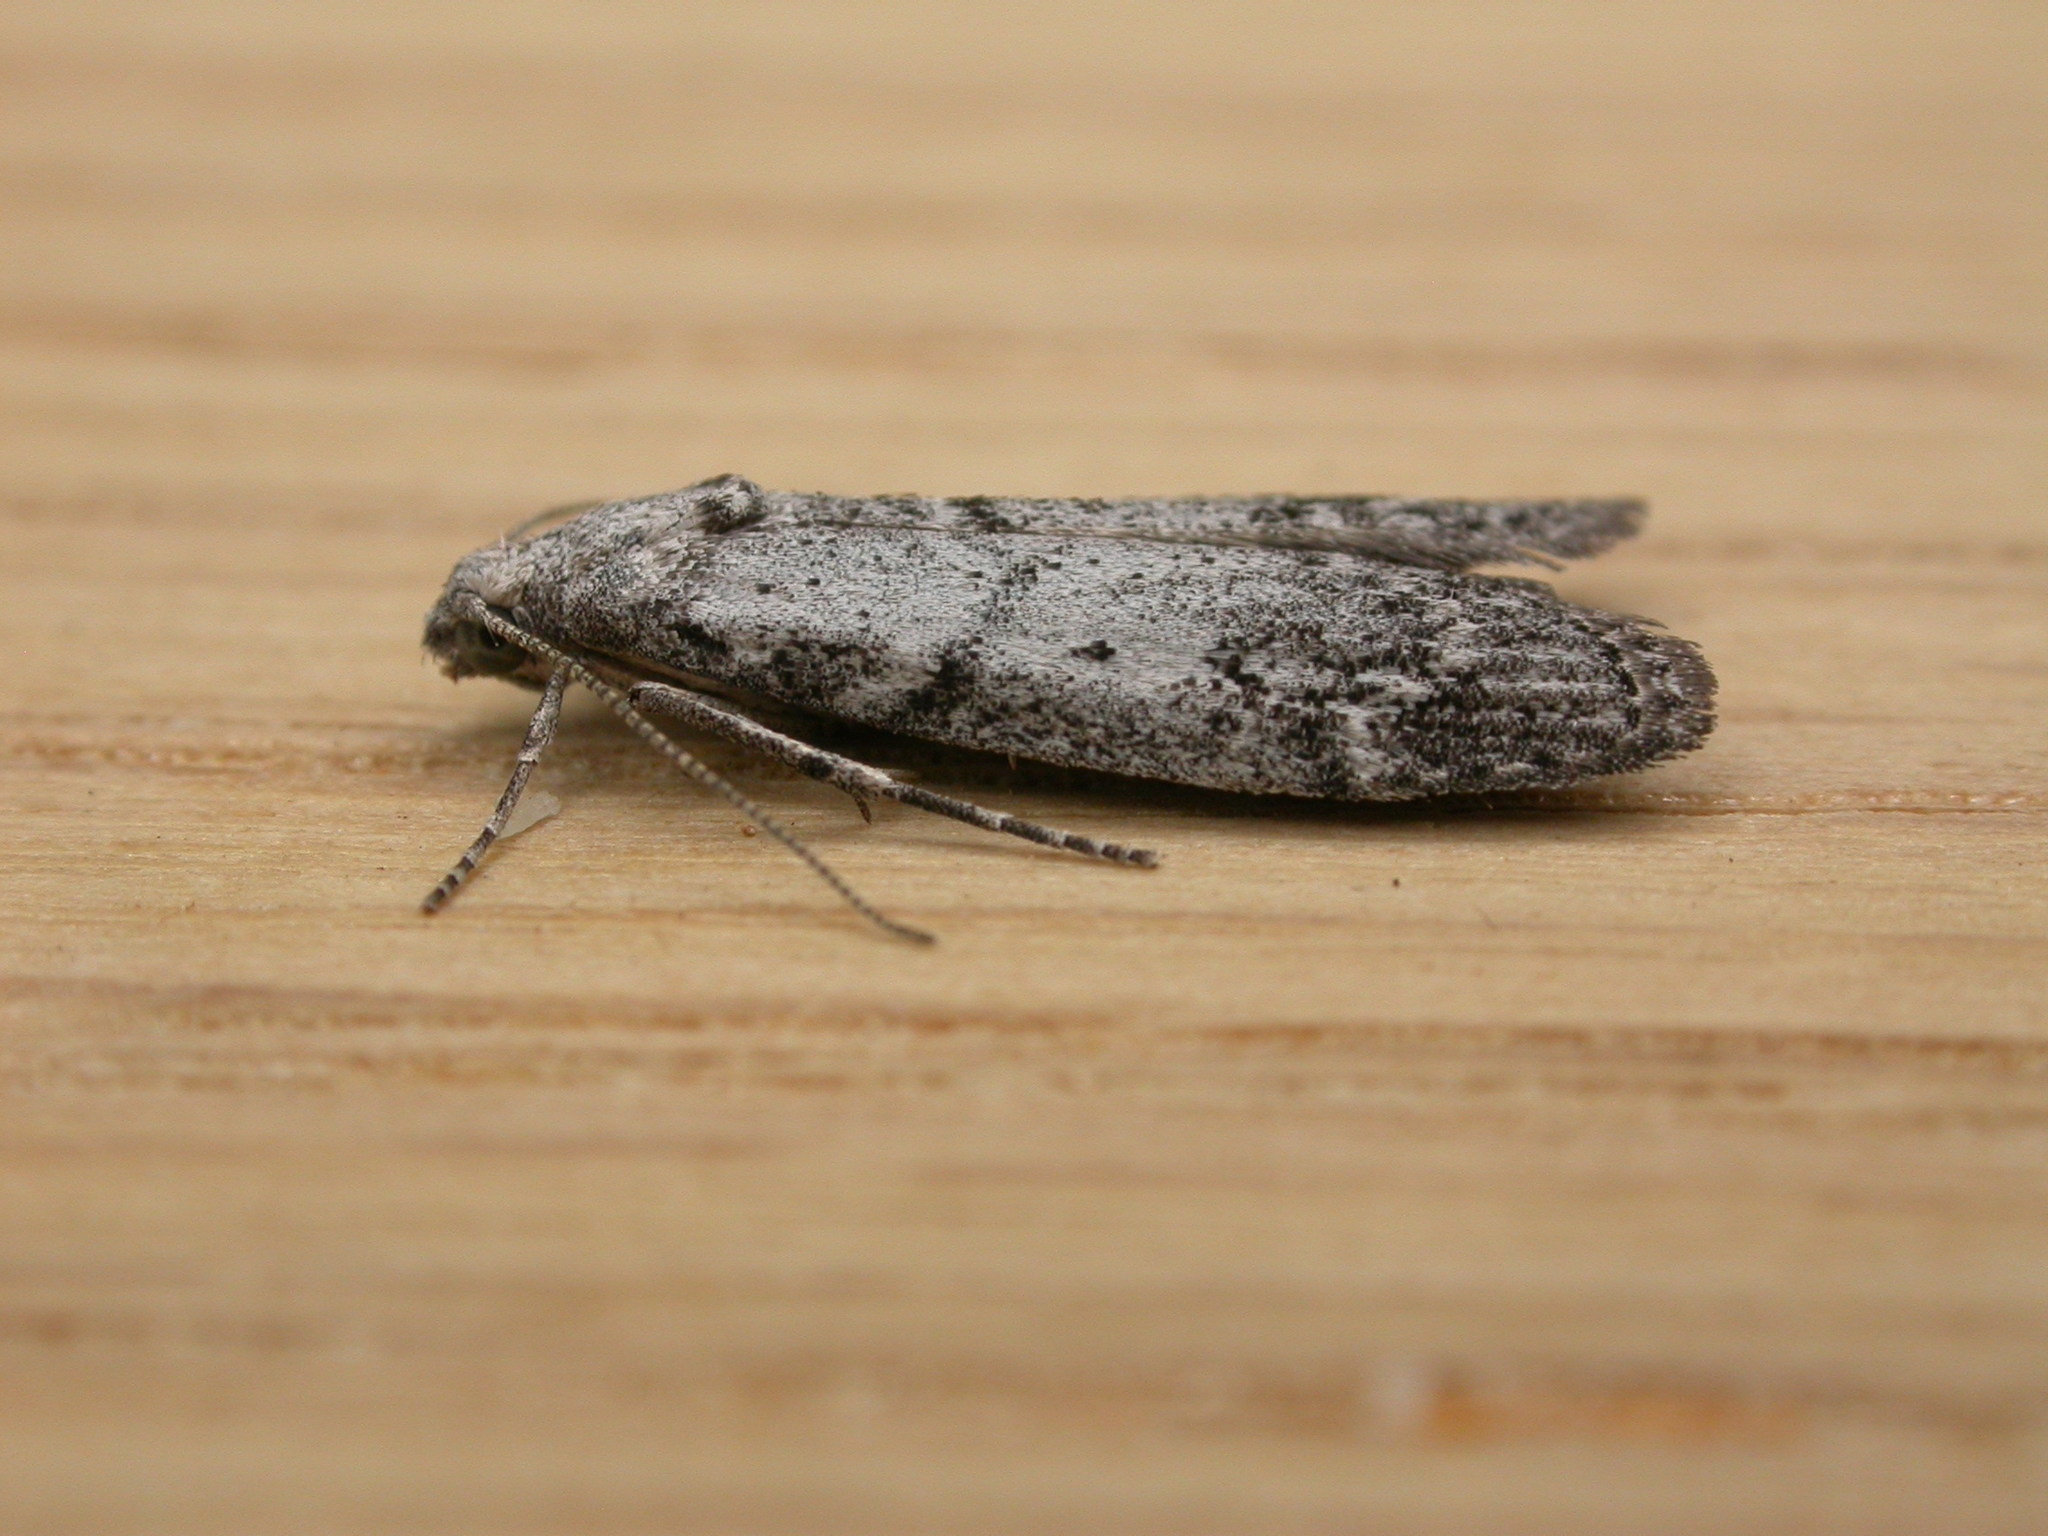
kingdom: Animalia
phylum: Arthropoda
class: Insecta
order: Lepidoptera
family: Pyralidae
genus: Heteromicta
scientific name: Heteromicta pachytera
